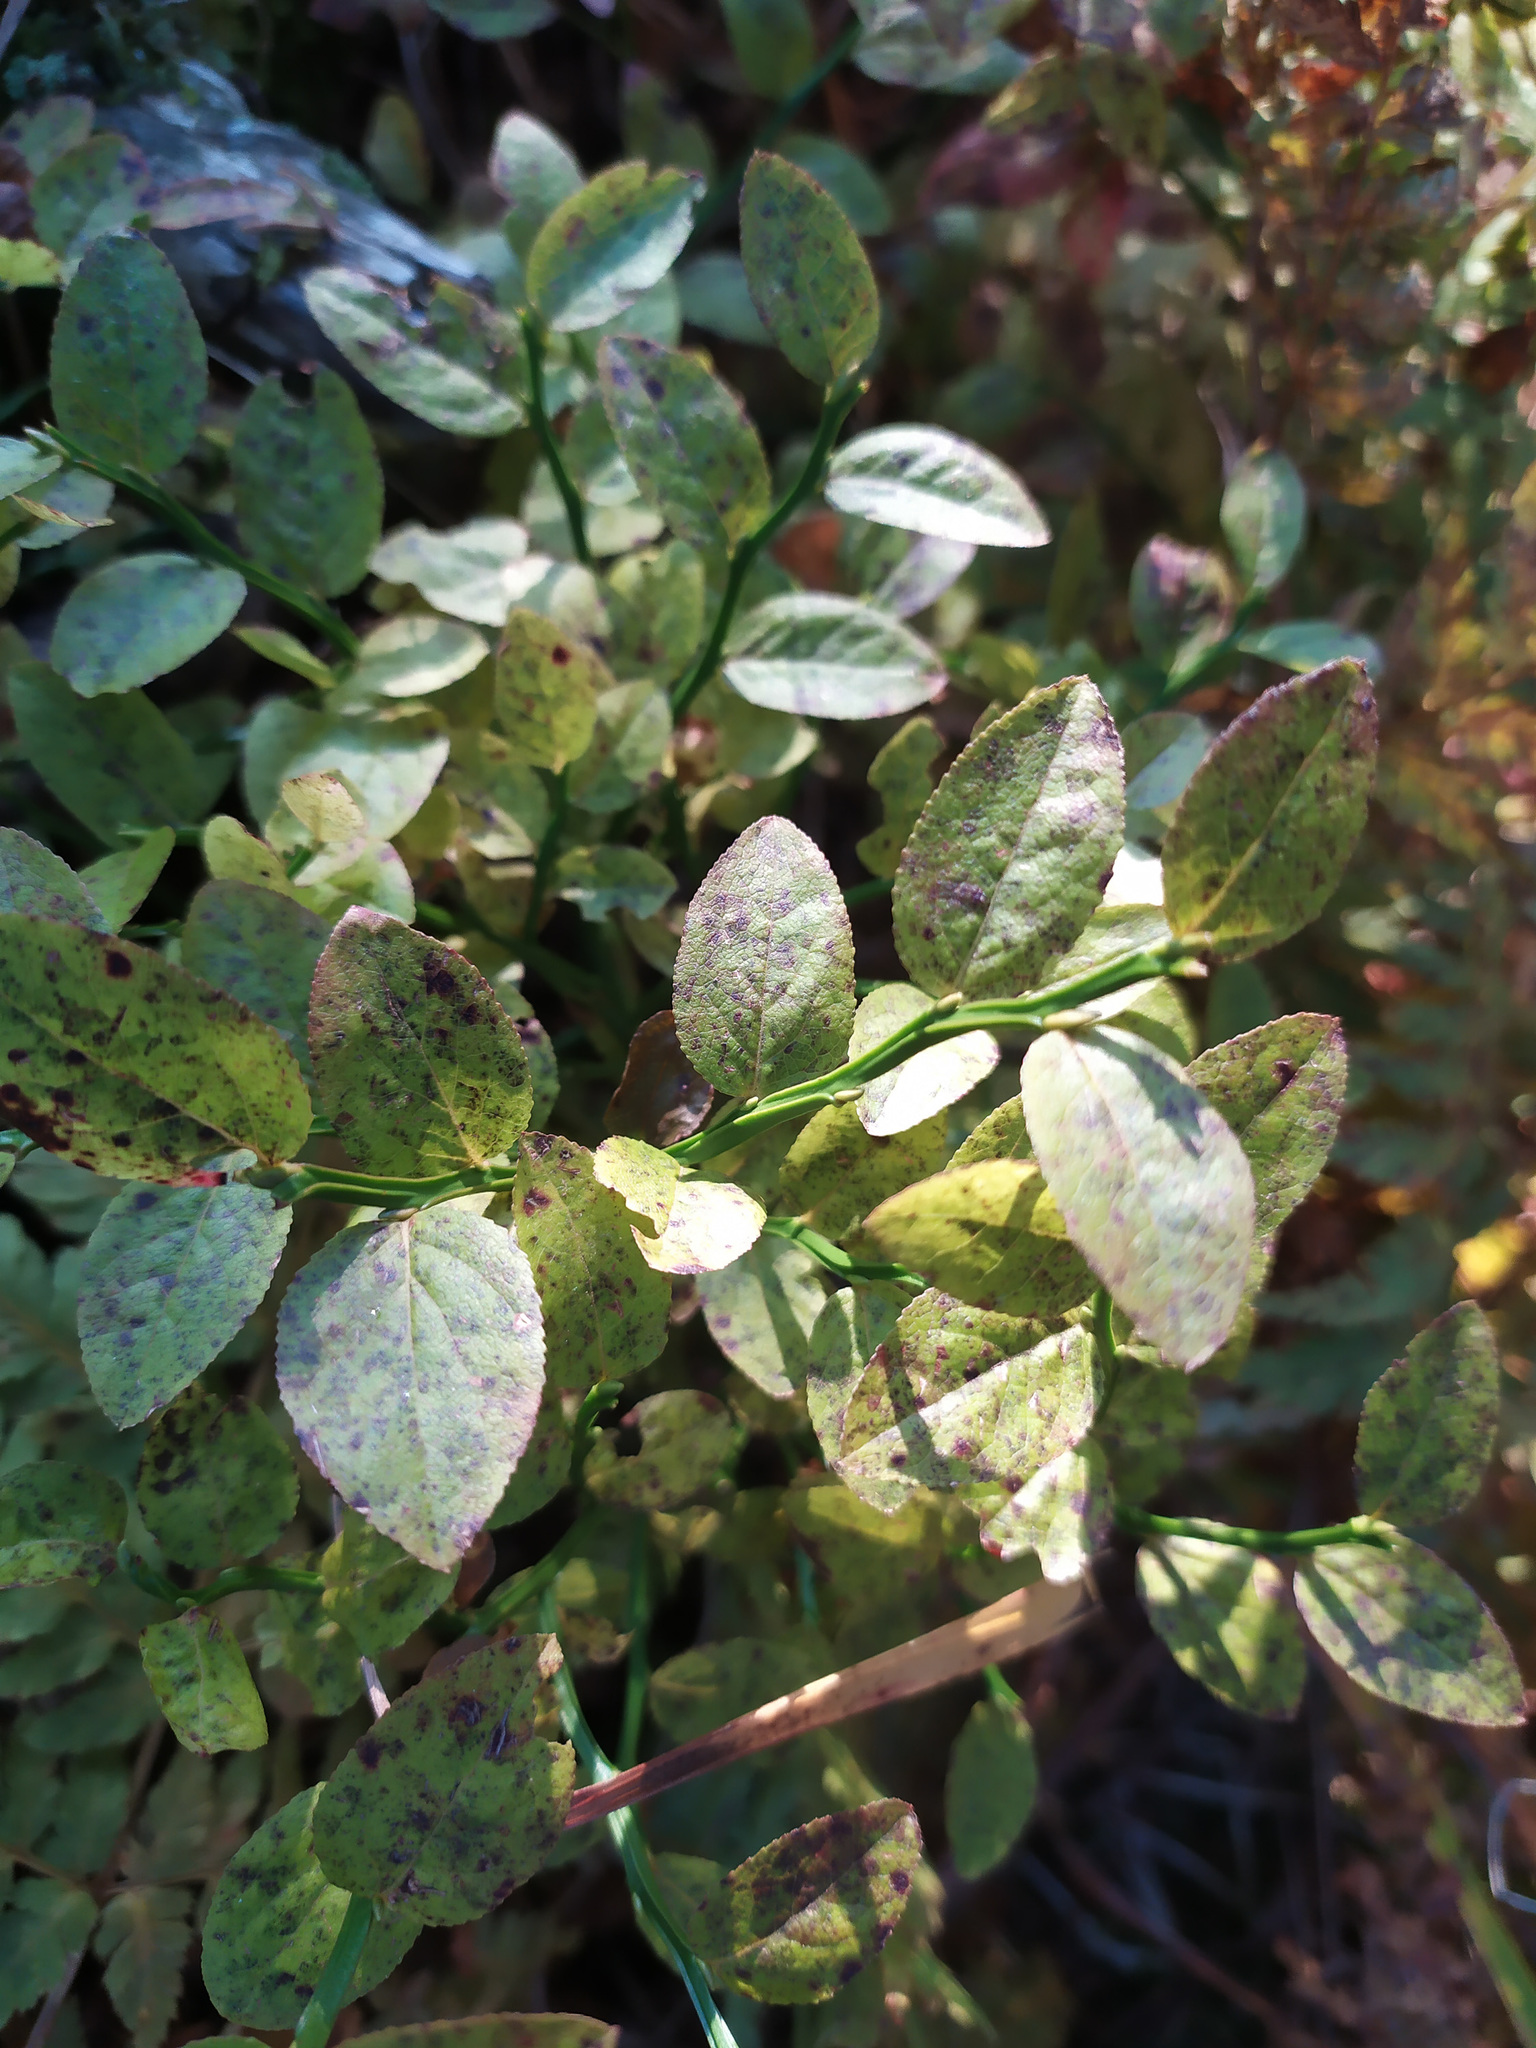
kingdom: Plantae
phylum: Tracheophyta
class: Magnoliopsida
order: Ericales
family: Ericaceae
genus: Vaccinium
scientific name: Vaccinium myrtillus
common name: Bilberry
